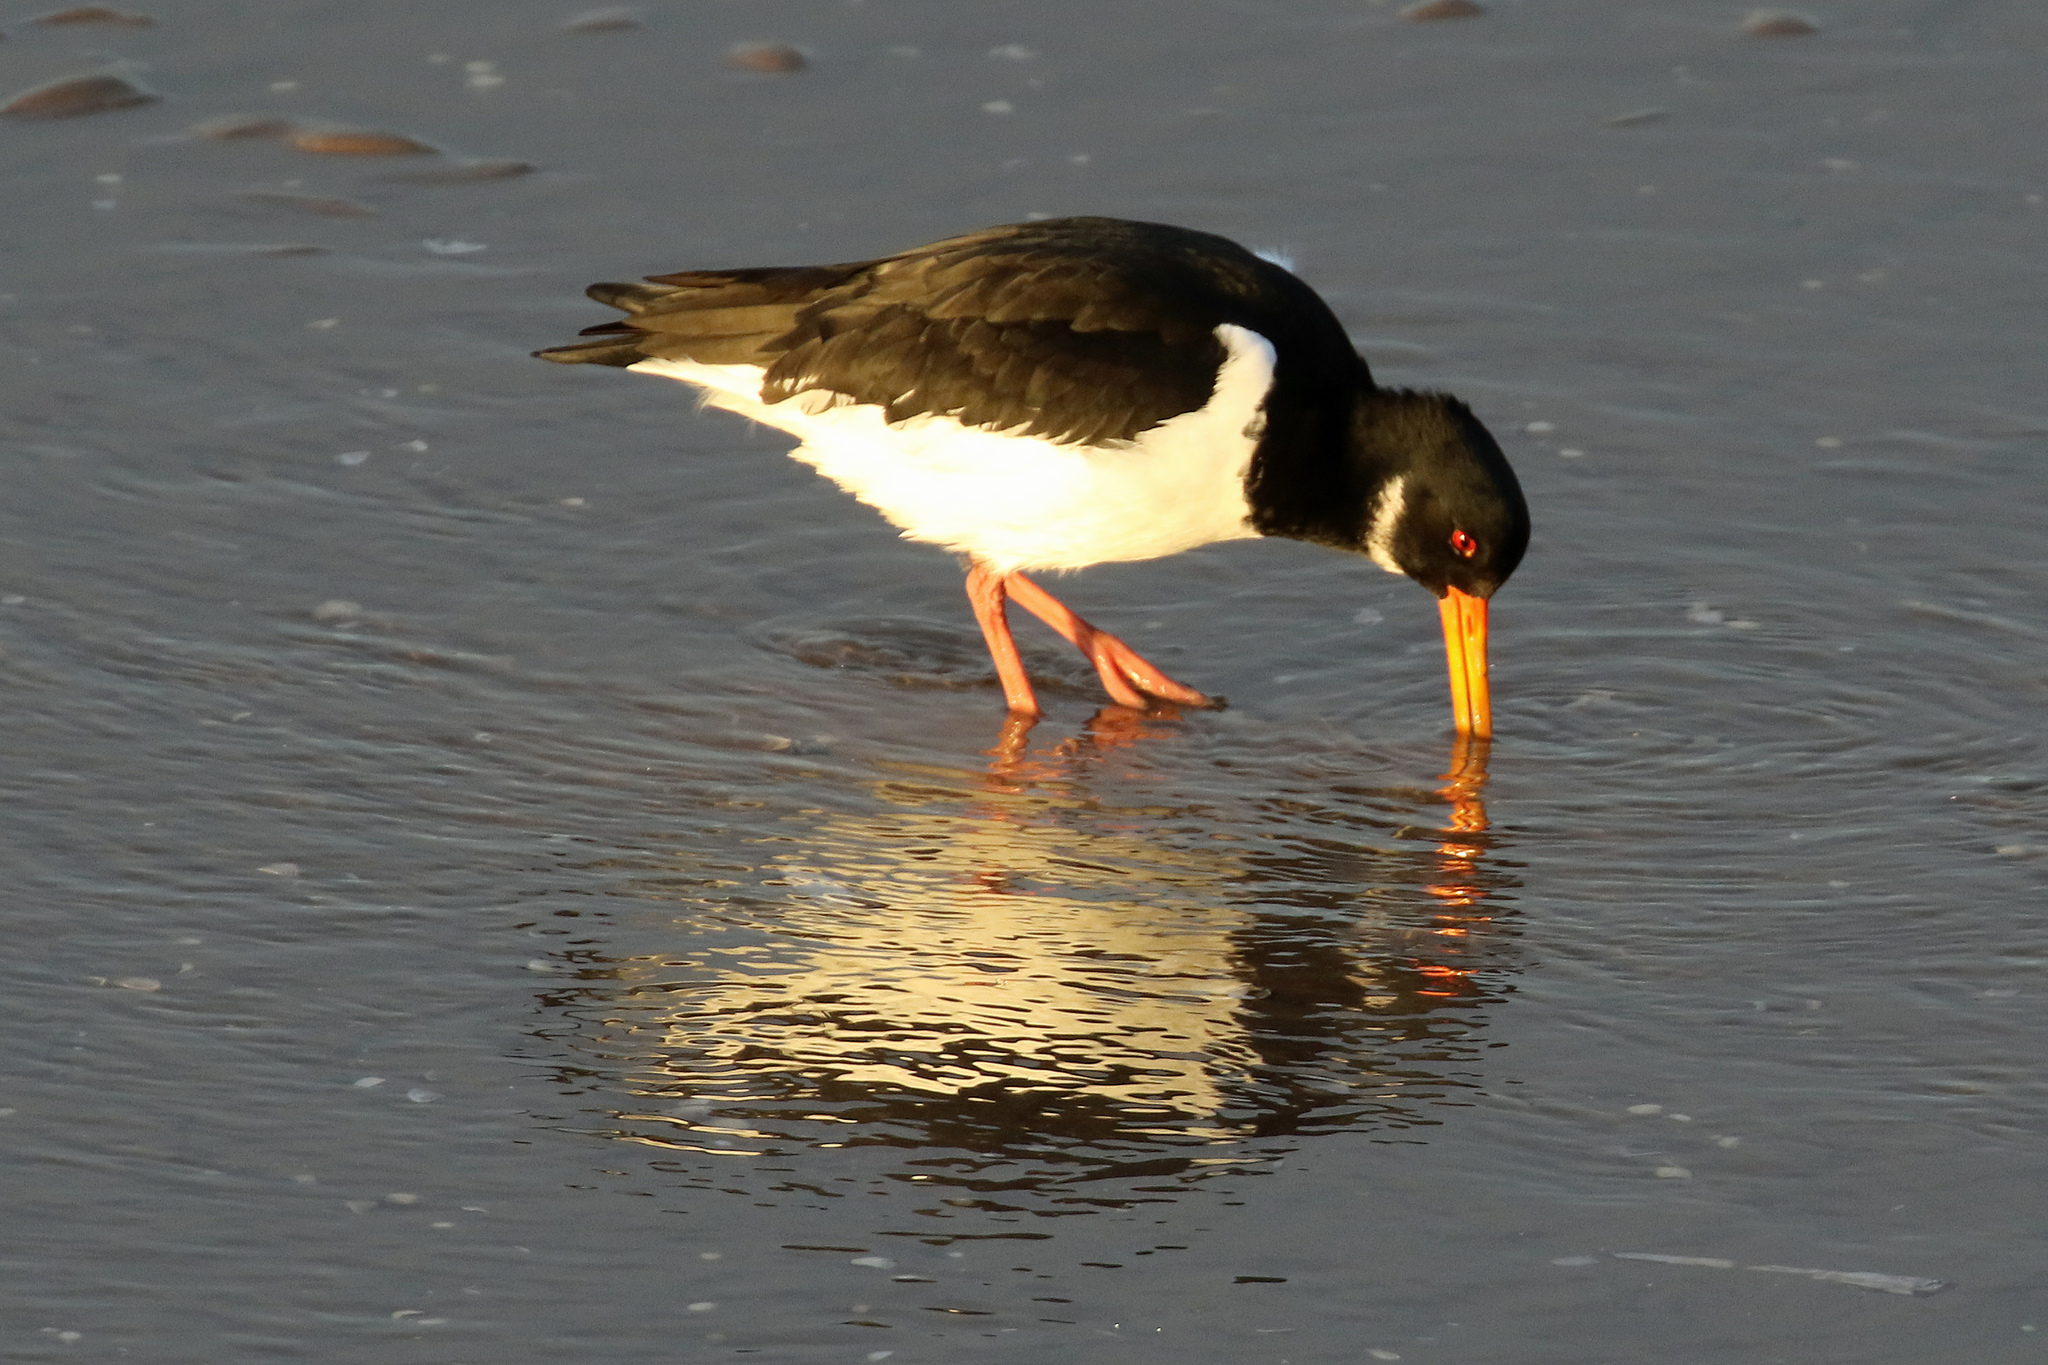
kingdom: Animalia
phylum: Chordata
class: Aves
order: Charadriiformes
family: Haematopodidae
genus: Haematopus
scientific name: Haematopus ostralegus
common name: Eurasian oystercatcher
